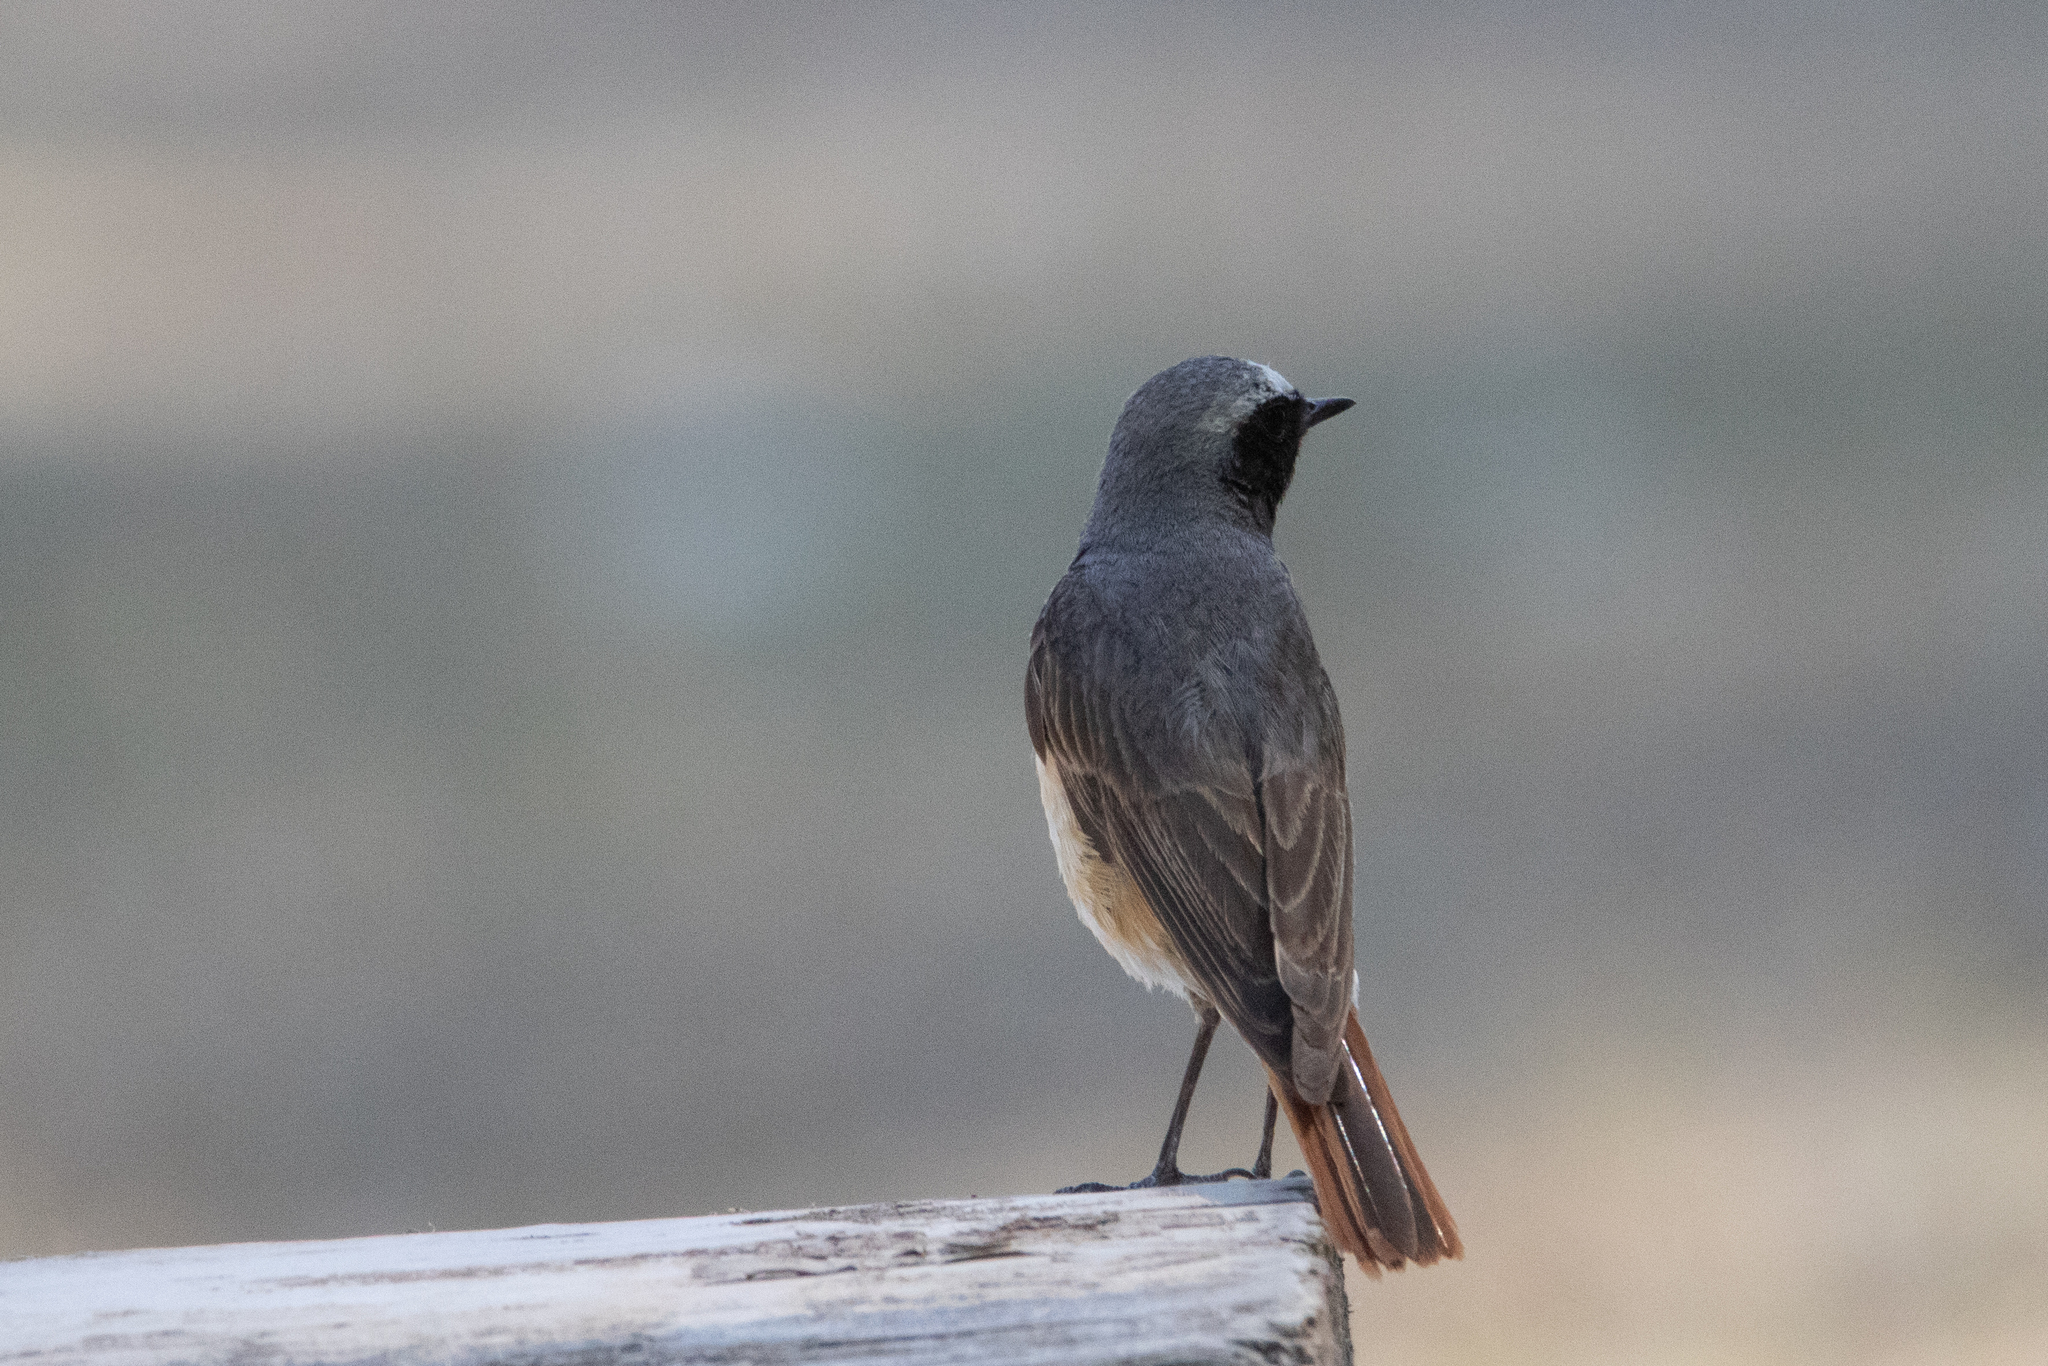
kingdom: Animalia
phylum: Chordata
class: Aves
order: Passeriformes
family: Muscicapidae
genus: Phoenicurus
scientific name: Phoenicurus phoenicurus
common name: Common redstart
